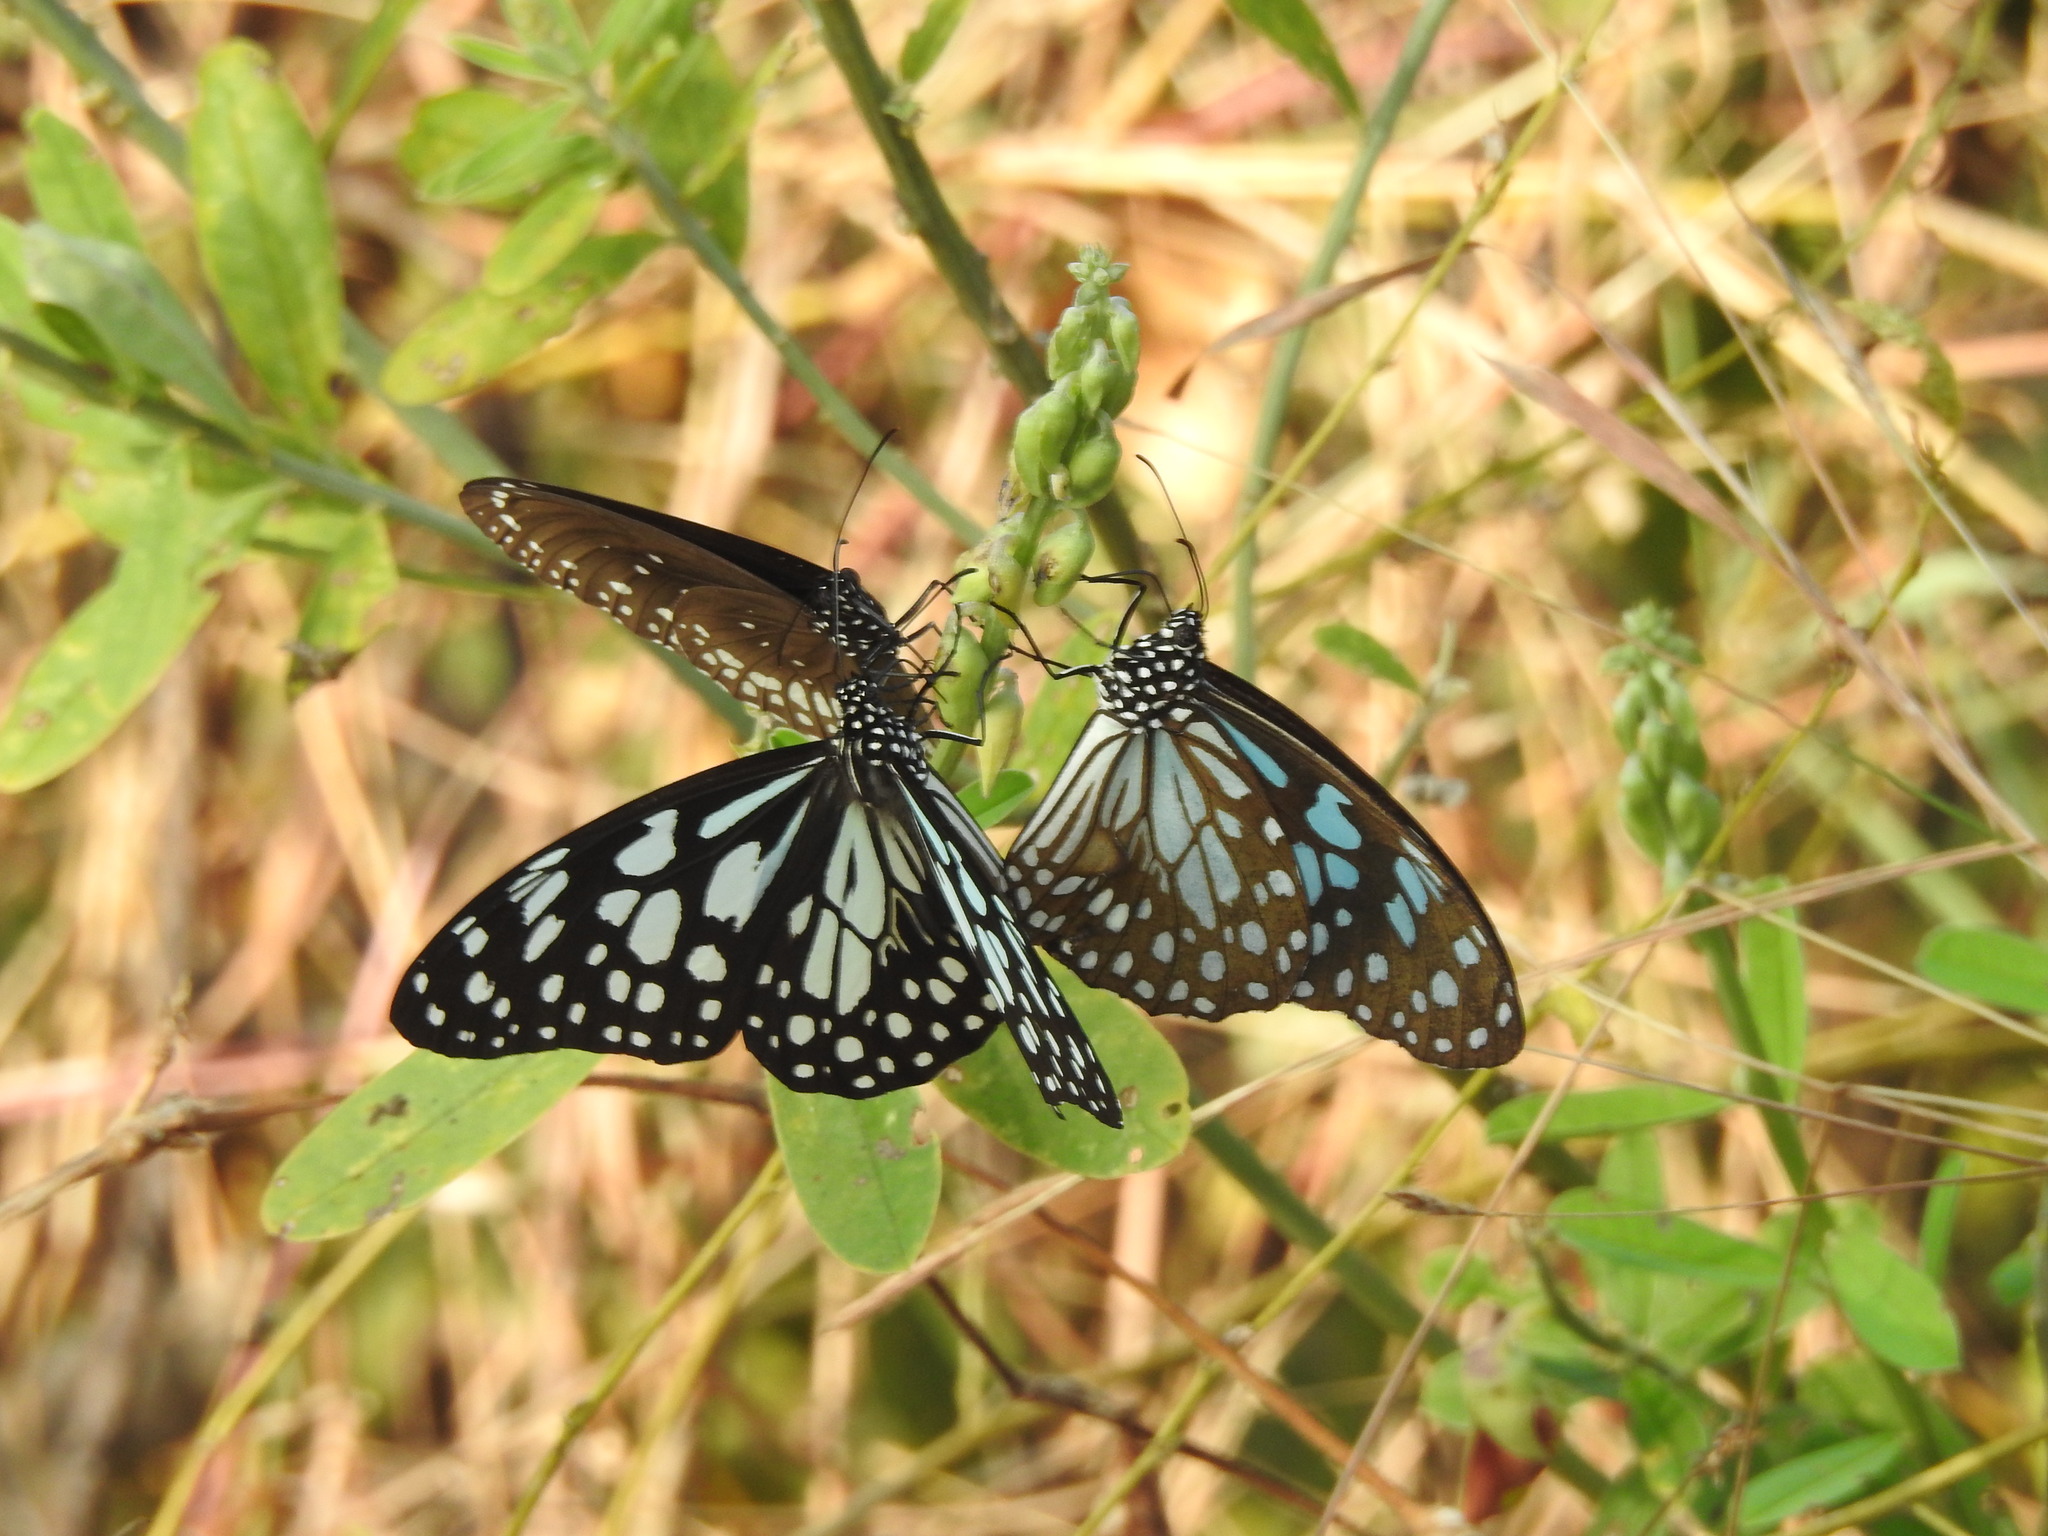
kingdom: Animalia
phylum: Arthropoda
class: Insecta
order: Lepidoptera
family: Nymphalidae
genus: Tirumala
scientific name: Tirumala limniace
